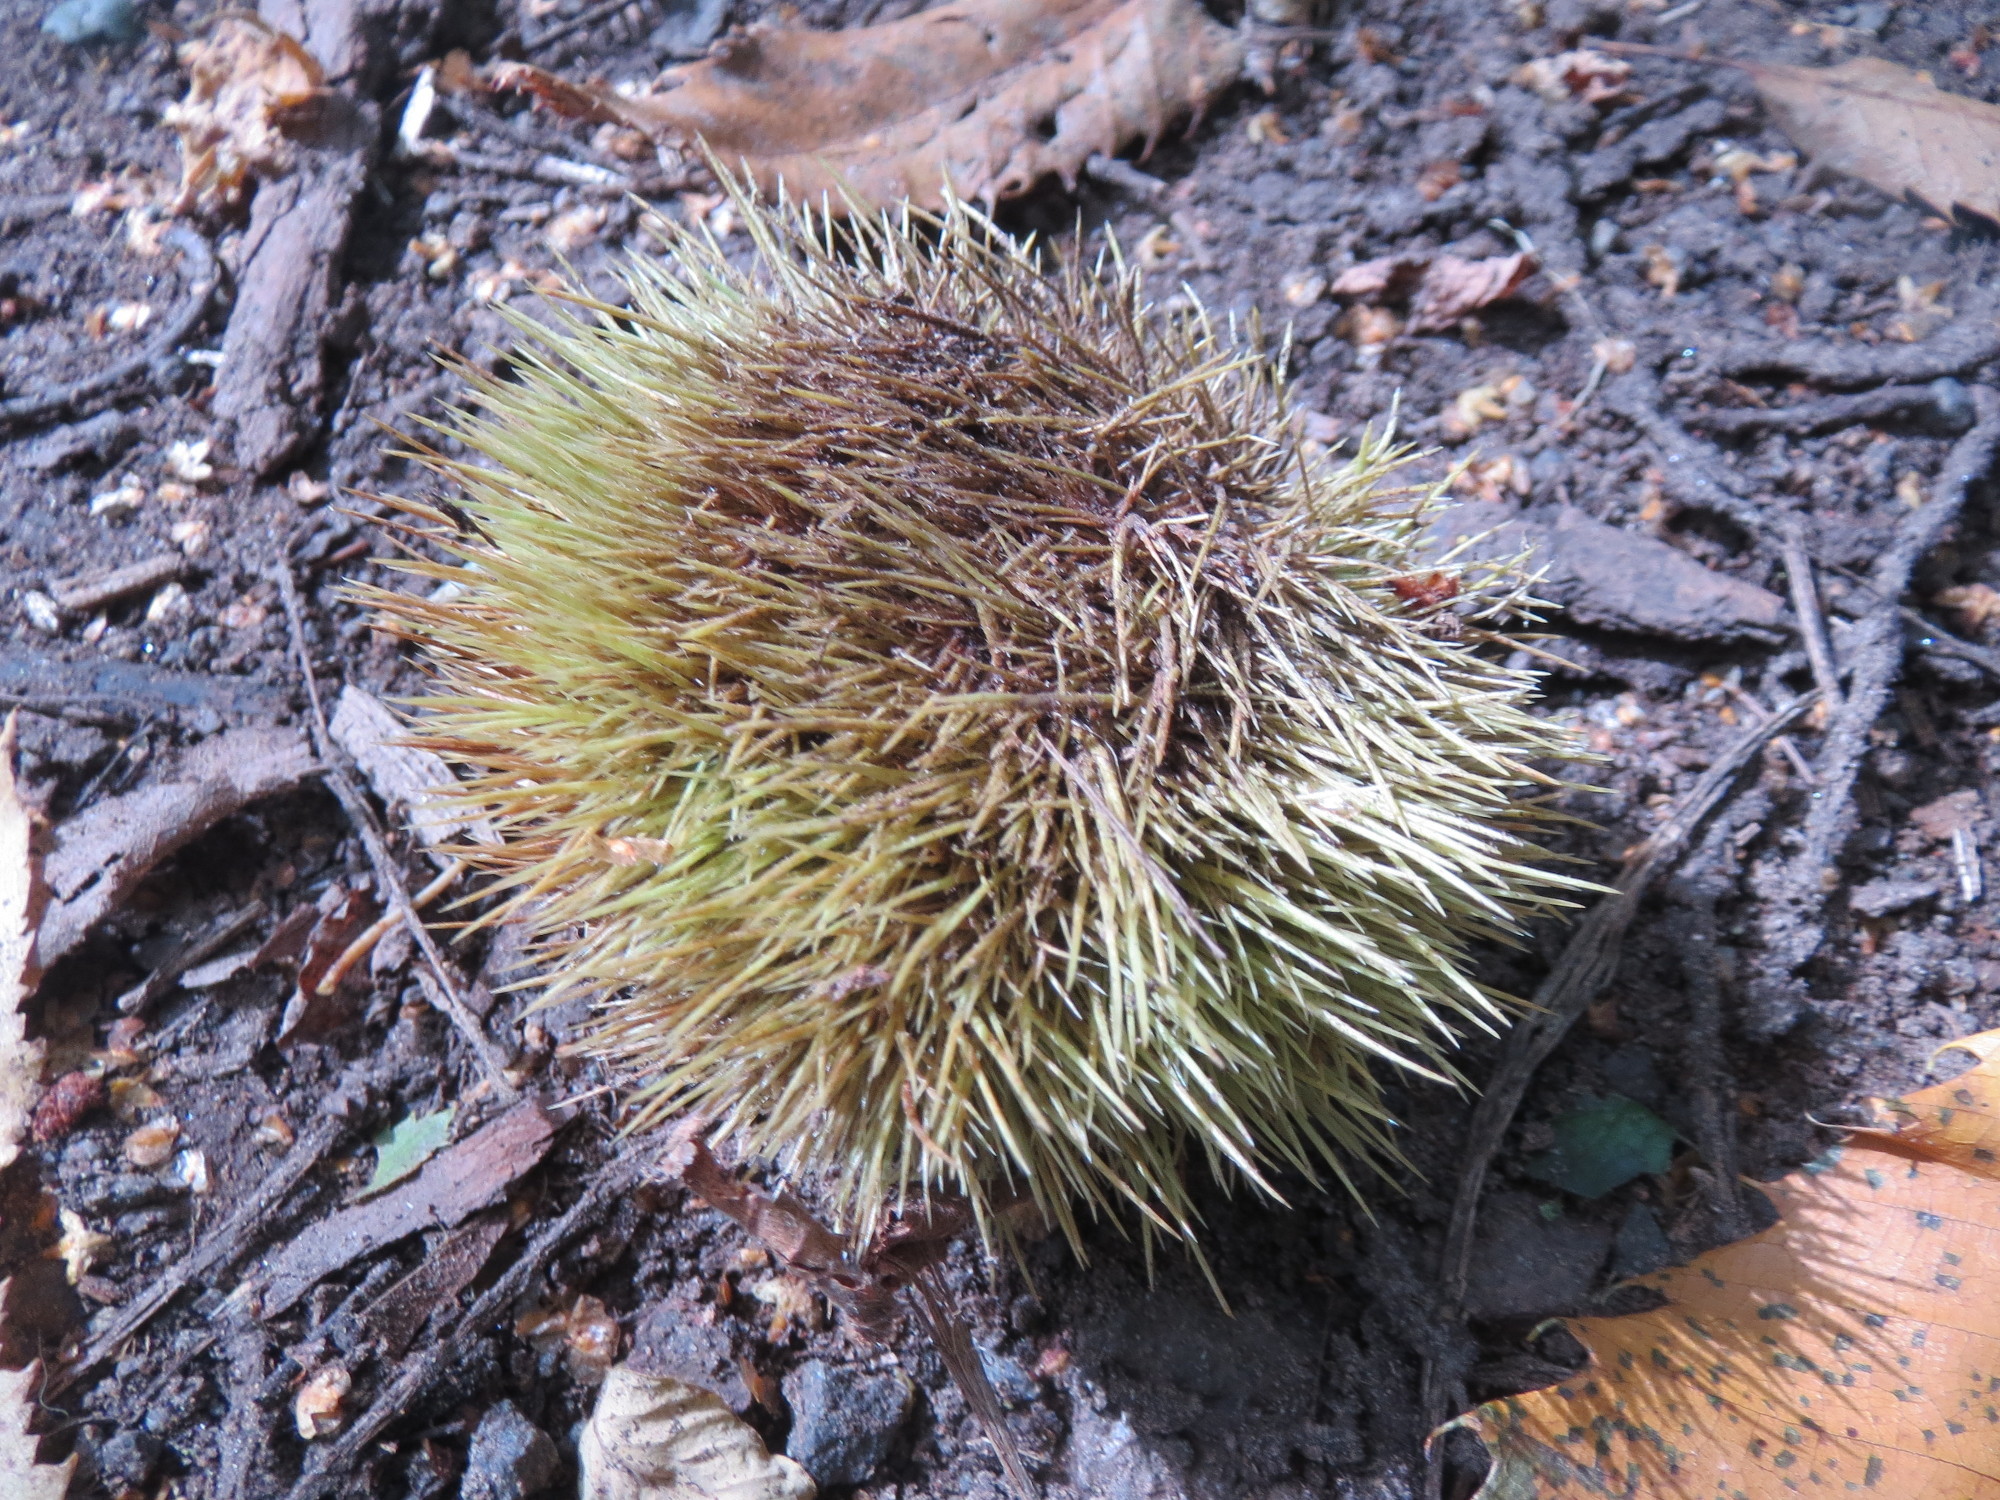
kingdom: Plantae
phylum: Tracheophyta
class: Magnoliopsida
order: Fagales
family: Fagaceae
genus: Castanea
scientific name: Castanea sativa
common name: Sweet chestnut
